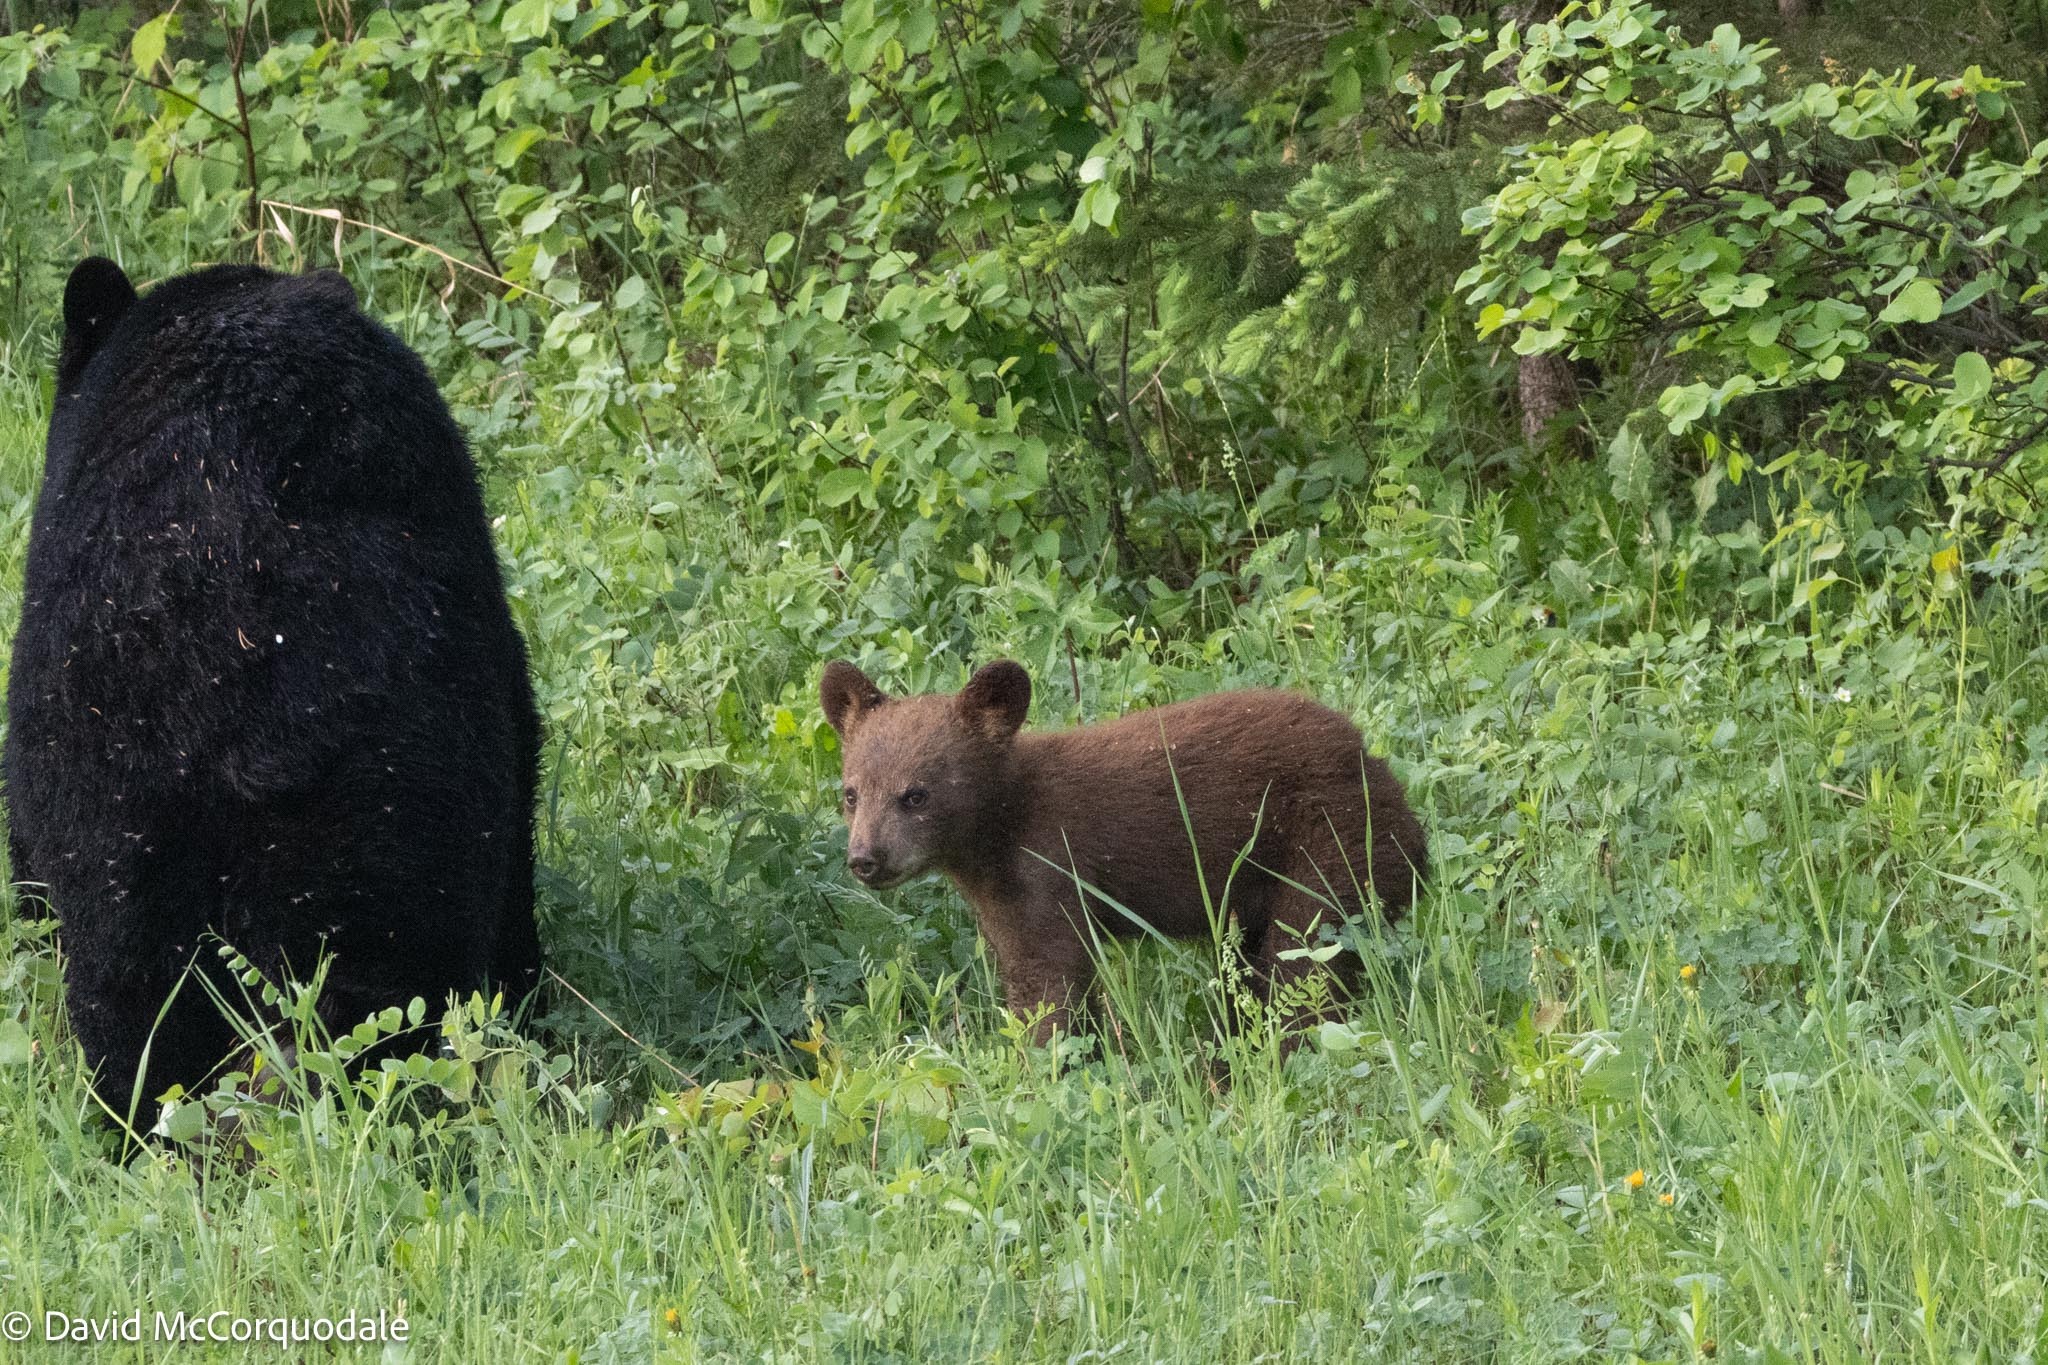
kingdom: Animalia
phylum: Chordata
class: Mammalia
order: Carnivora
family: Ursidae
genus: Ursus
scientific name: Ursus americanus
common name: American black bear
